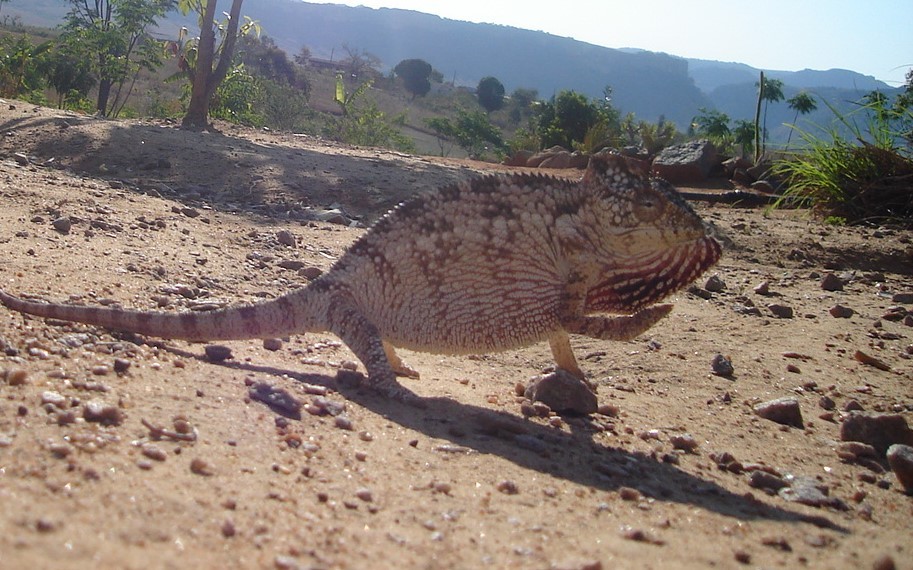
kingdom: Animalia
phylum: Chordata
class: Squamata
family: Chamaeleonidae
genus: Furcifer
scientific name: Furcifer oustaleti
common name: Oustalet's chameleon
